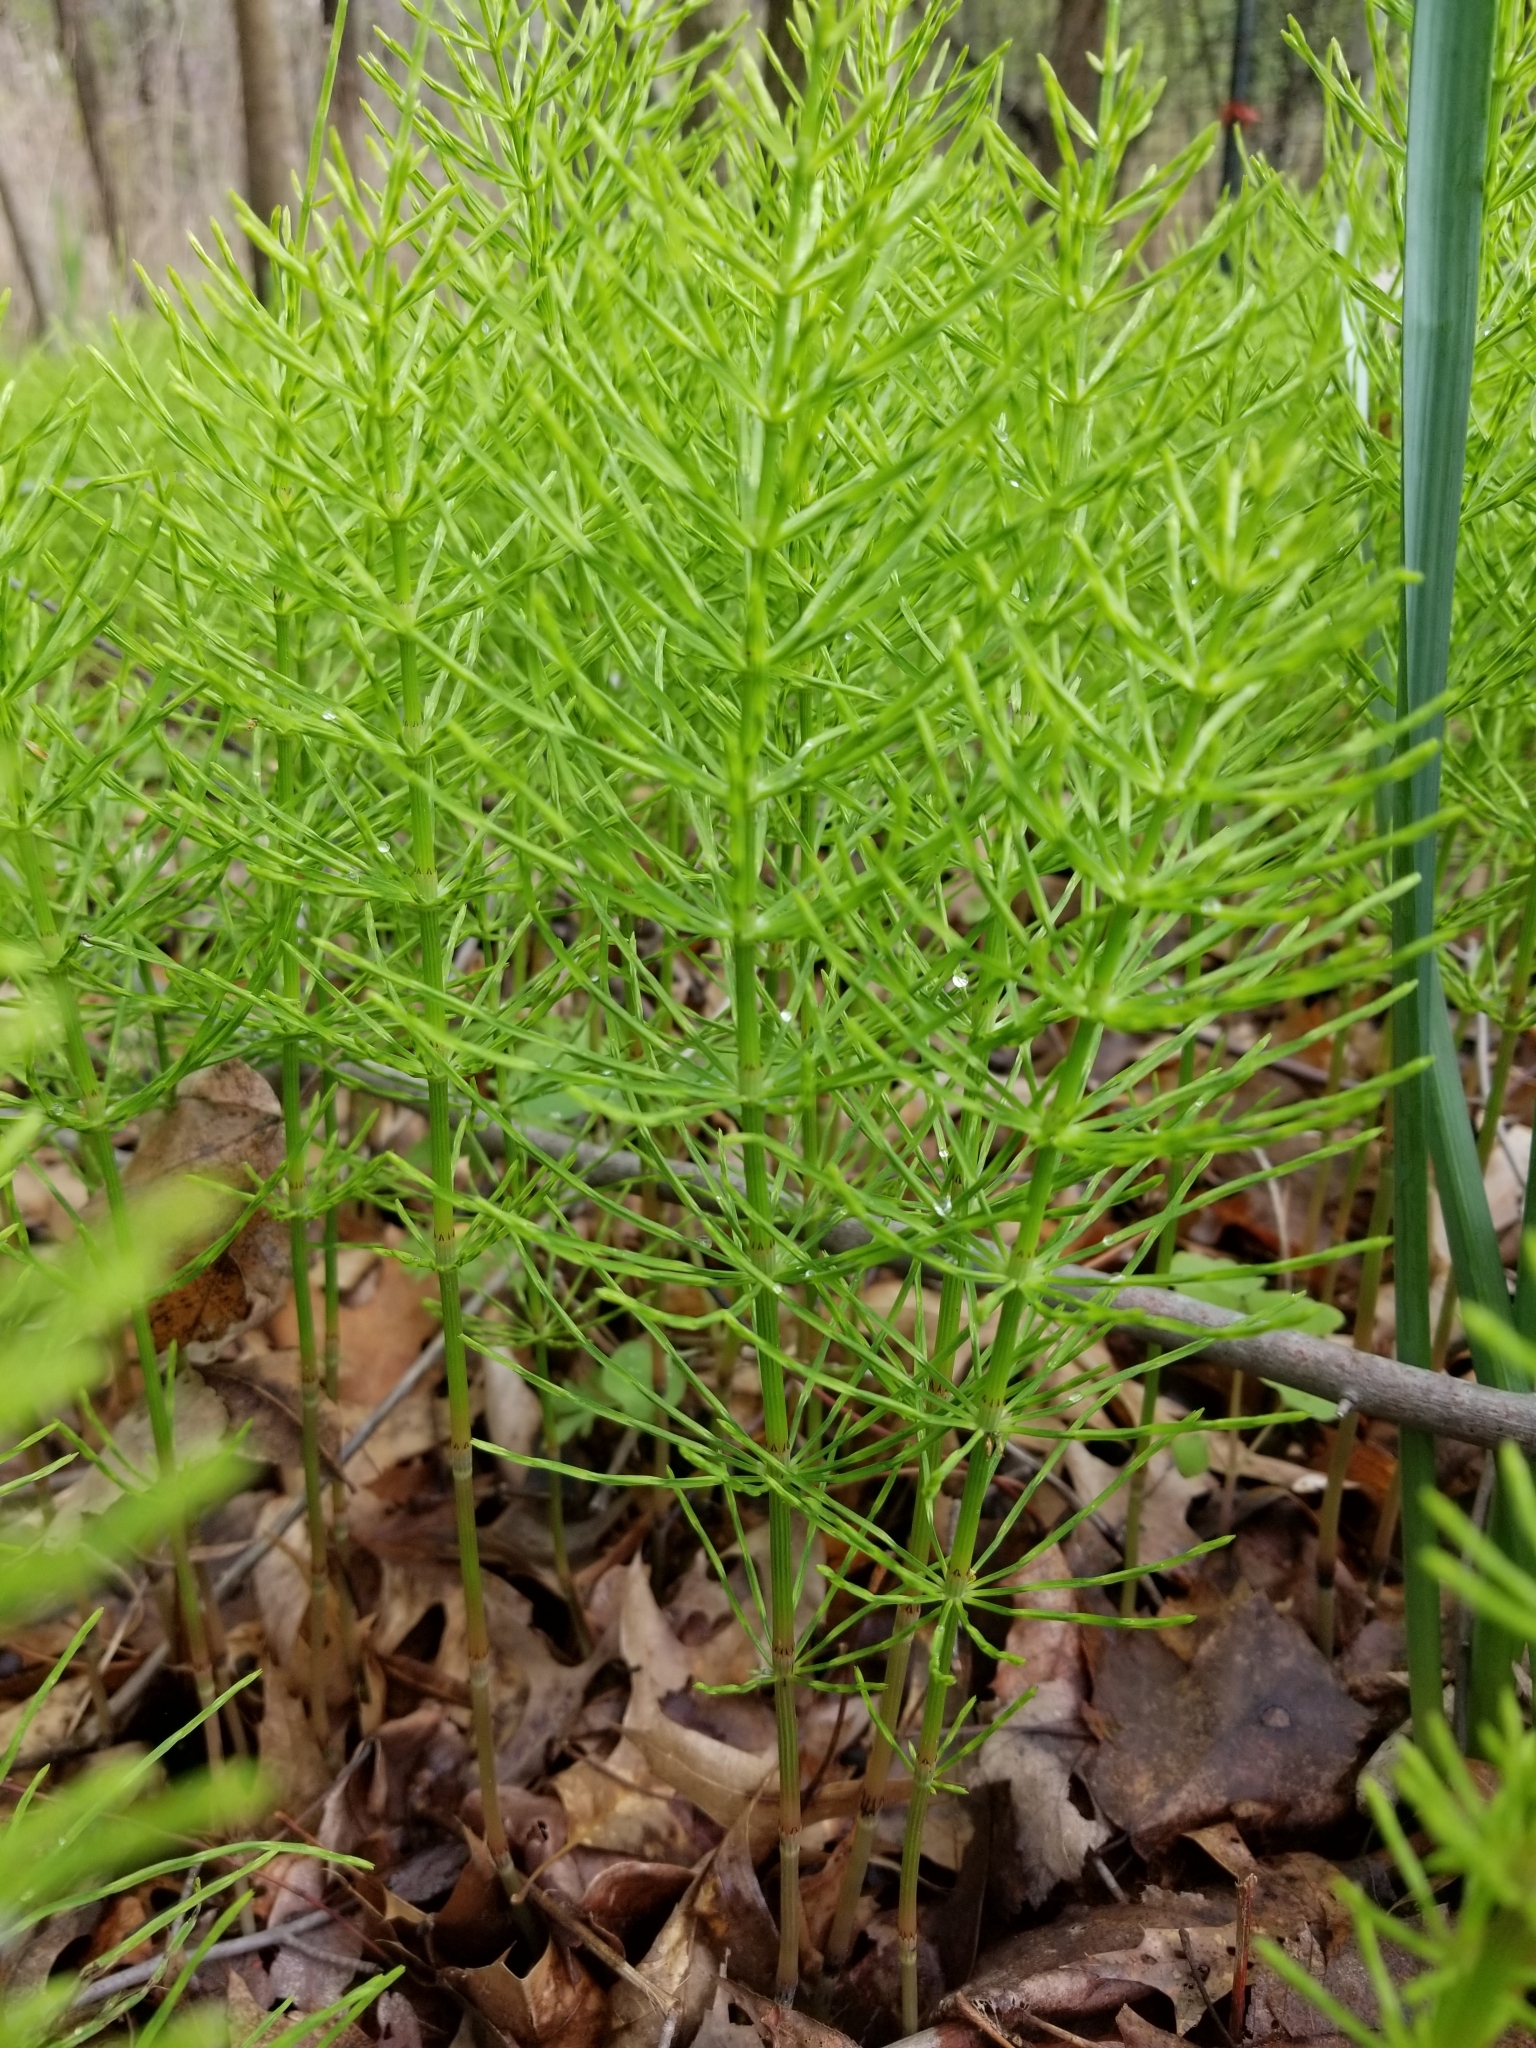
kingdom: Plantae
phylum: Tracheophyta
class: Polypodiopsida
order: Equisetales
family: Equisetaceae
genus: Equisetum
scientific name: Equisetum arvense
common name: Field horsetail
